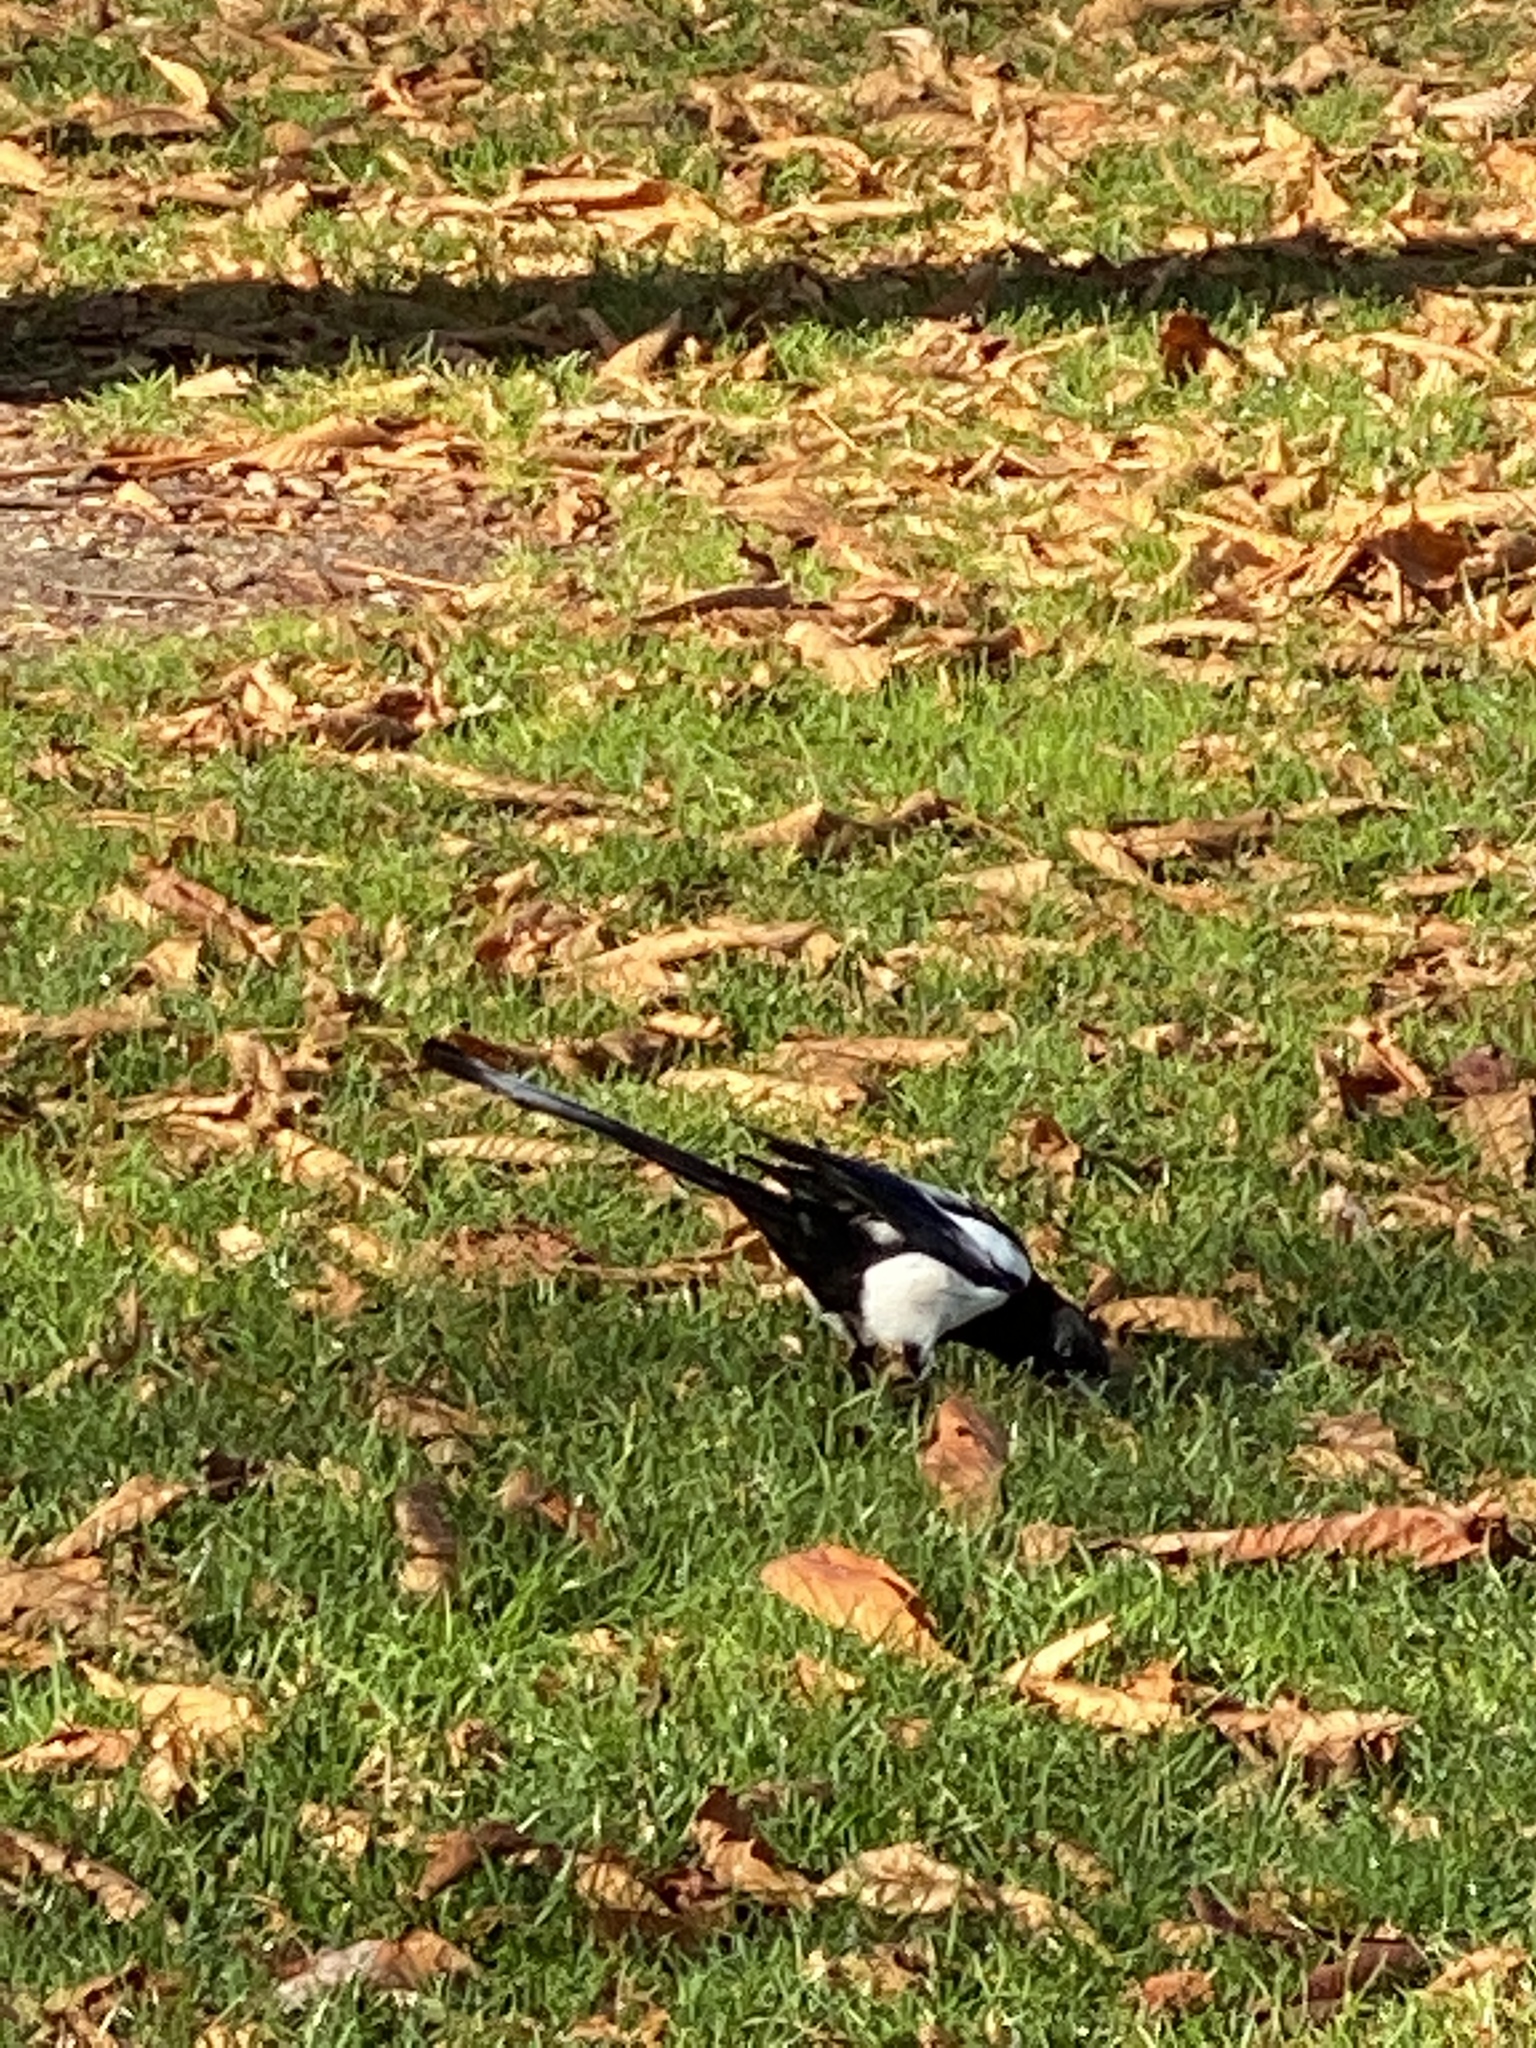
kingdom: Animalia
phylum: Chordata
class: Aves
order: Passeriformes
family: Corvidae
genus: Pica
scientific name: Pica pica
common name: Eurasian magpie
